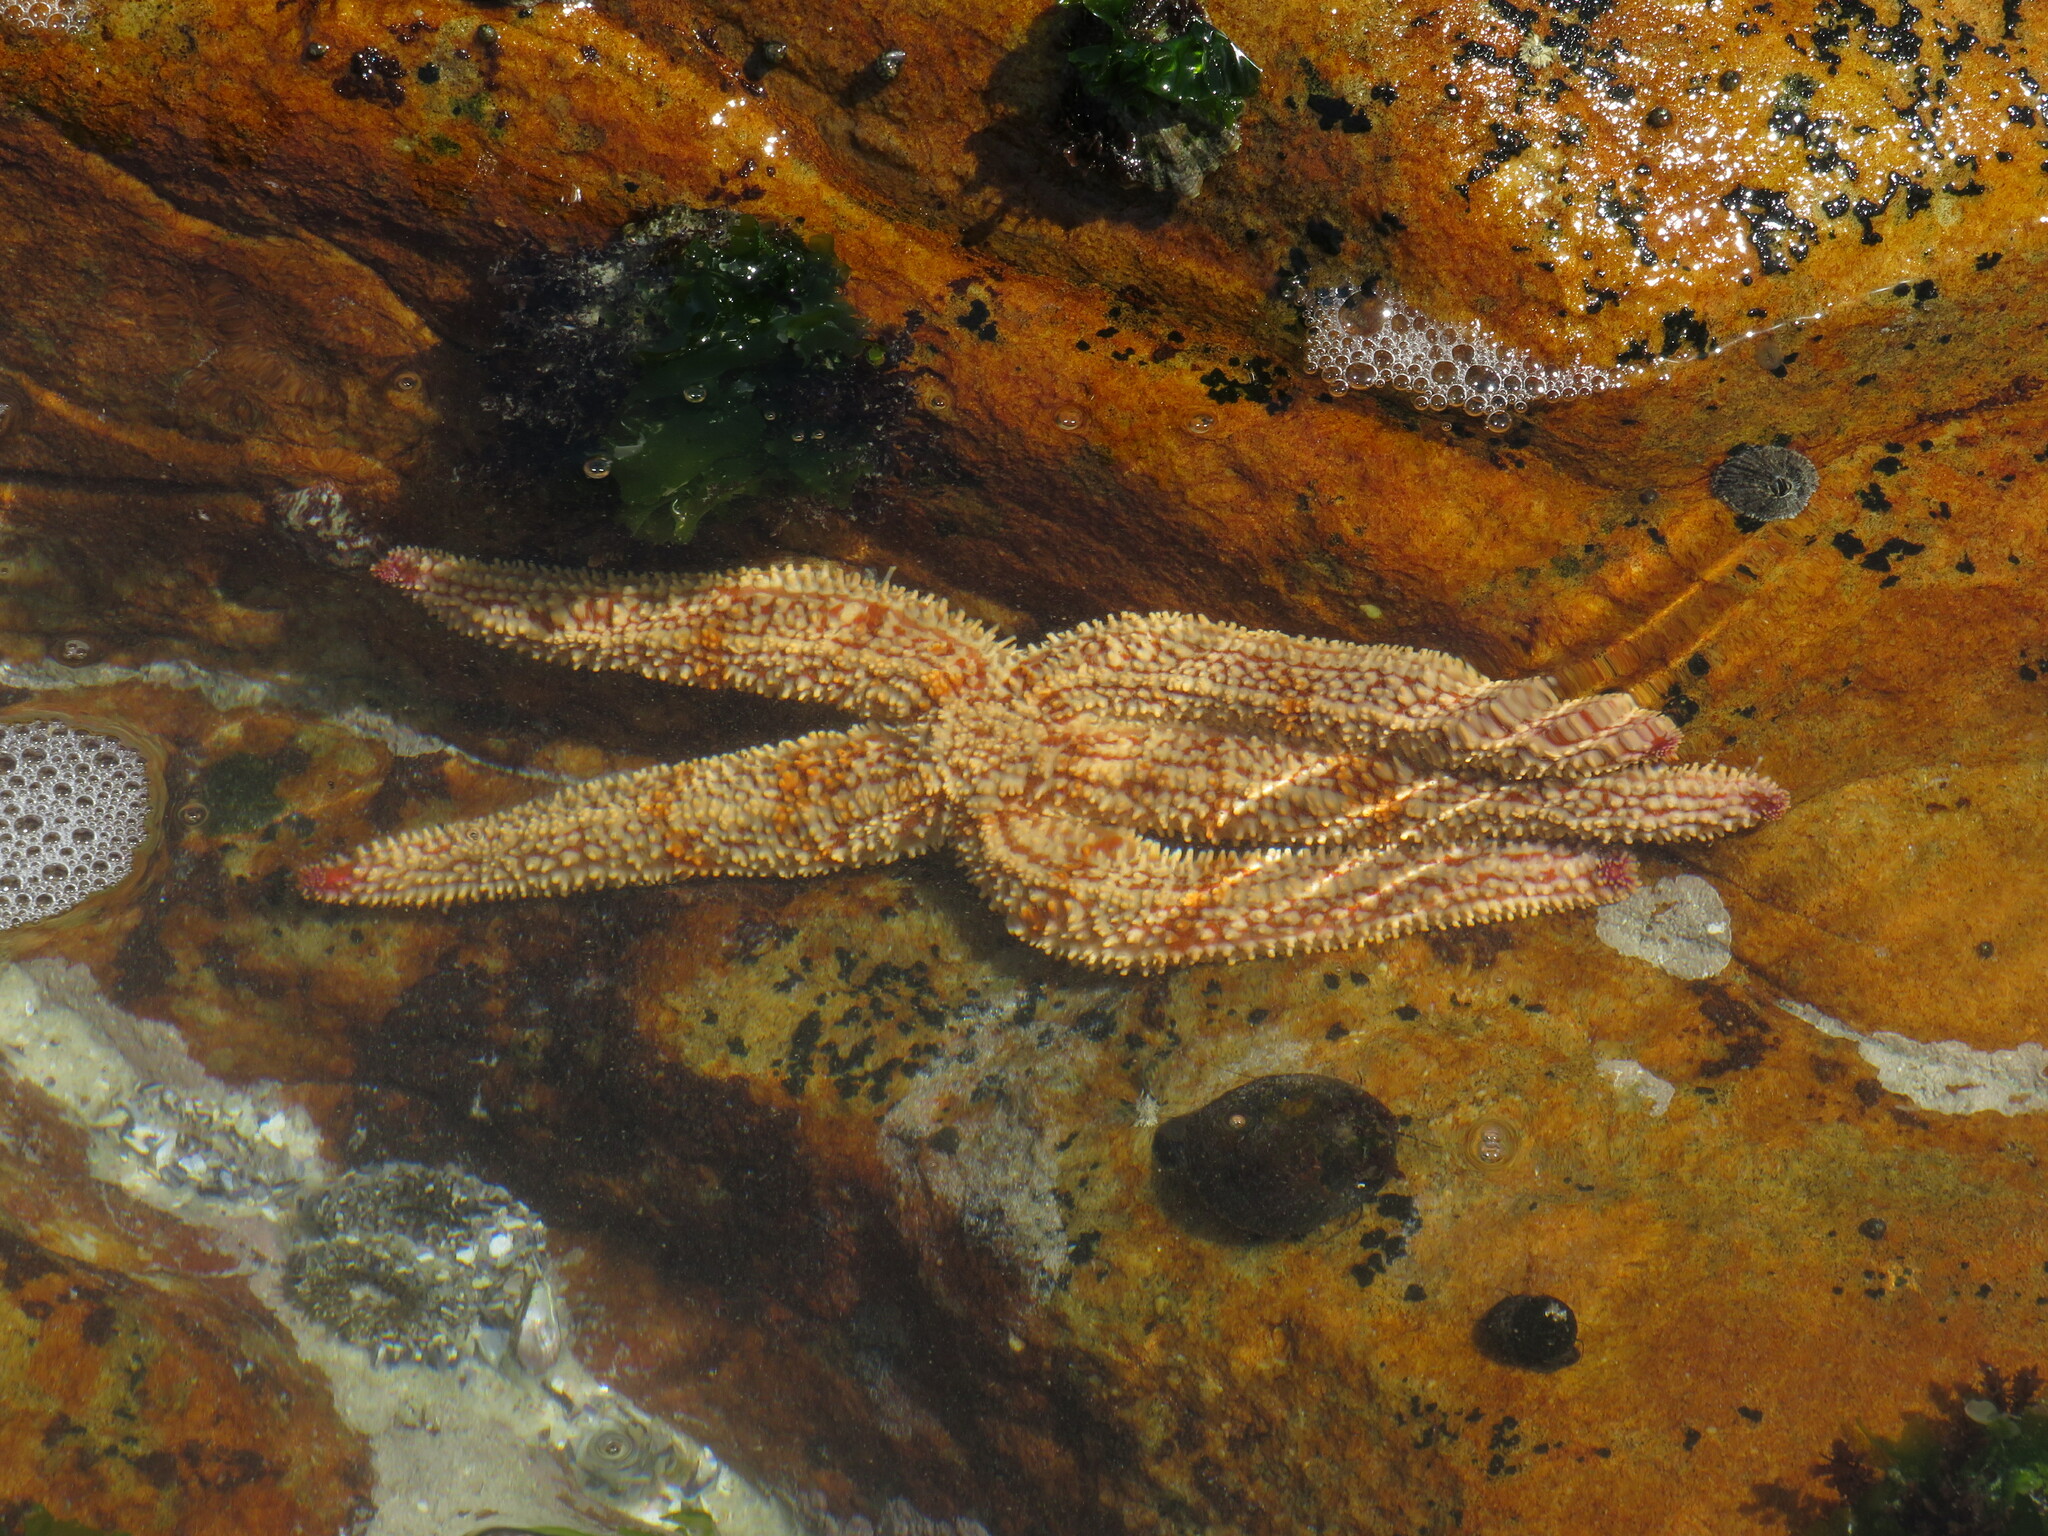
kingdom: Animalia
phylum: Echinodermata
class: Asteroidea
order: Forcipulatida
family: Asteriidae
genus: Marthasterias
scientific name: Marthasterias africana
